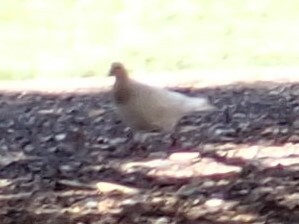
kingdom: Animalia
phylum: Chordata
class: Aves
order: Columbiformes
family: Columbidae
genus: Columba
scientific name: Columba livia
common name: Rock pigeon
